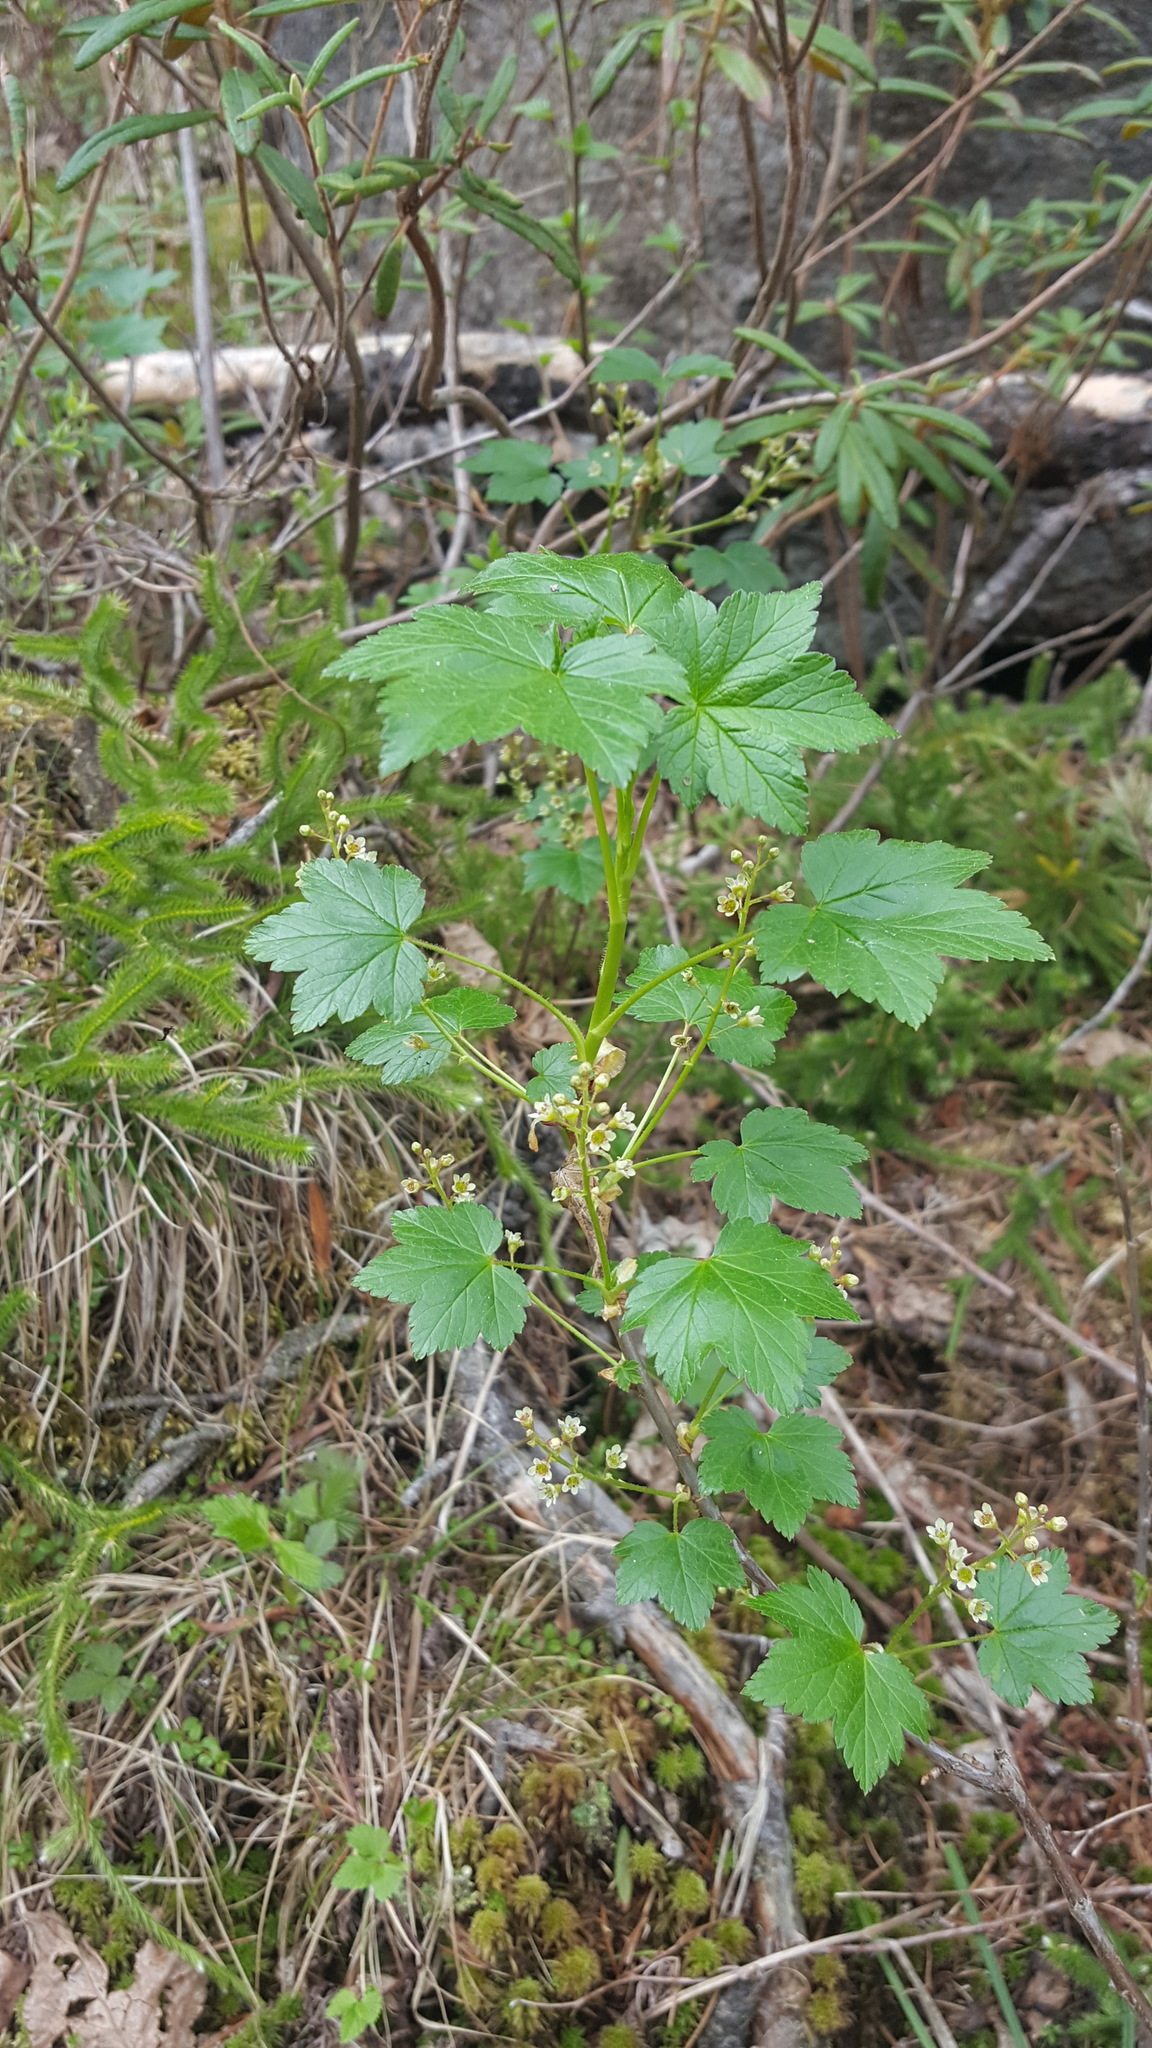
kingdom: Plantae
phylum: Tracheophyta
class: Magnoliopsida
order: Saxifragales
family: Grossulariaceae
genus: Ribes
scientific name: Ribes glandulosum
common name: Skunk currant
